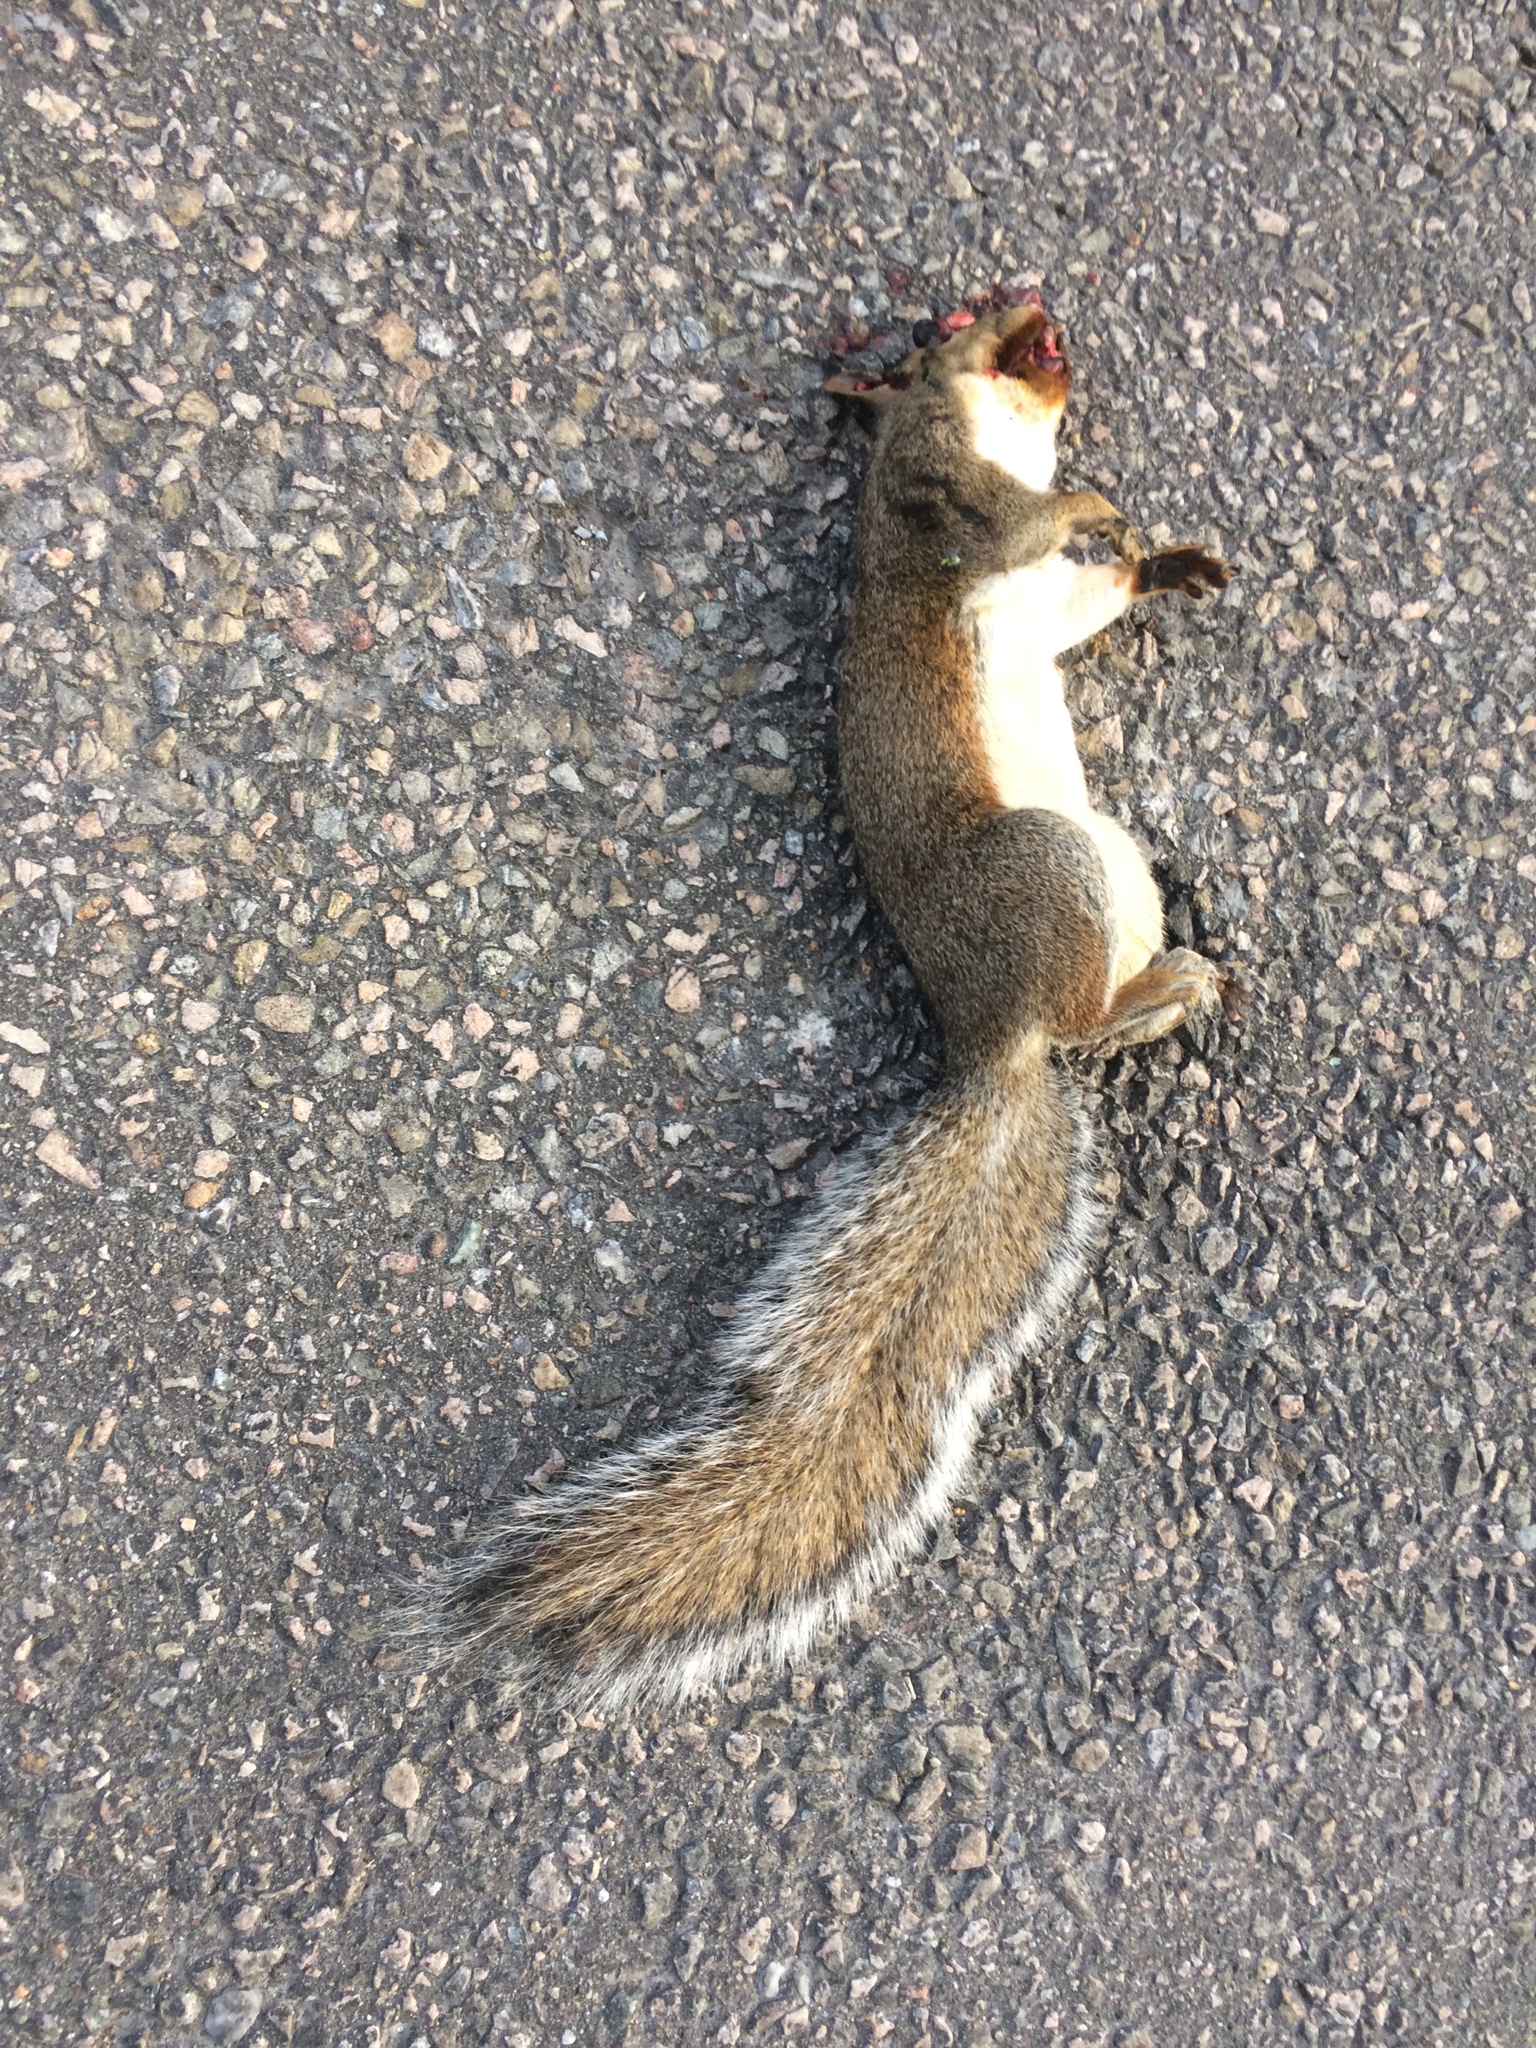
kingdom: Animalia
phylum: Chordata
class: Mammalia
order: Rodentia
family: Sciuridae
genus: Sciurus
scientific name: Sciurus carolinensis
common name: Eastern gray squirrel
